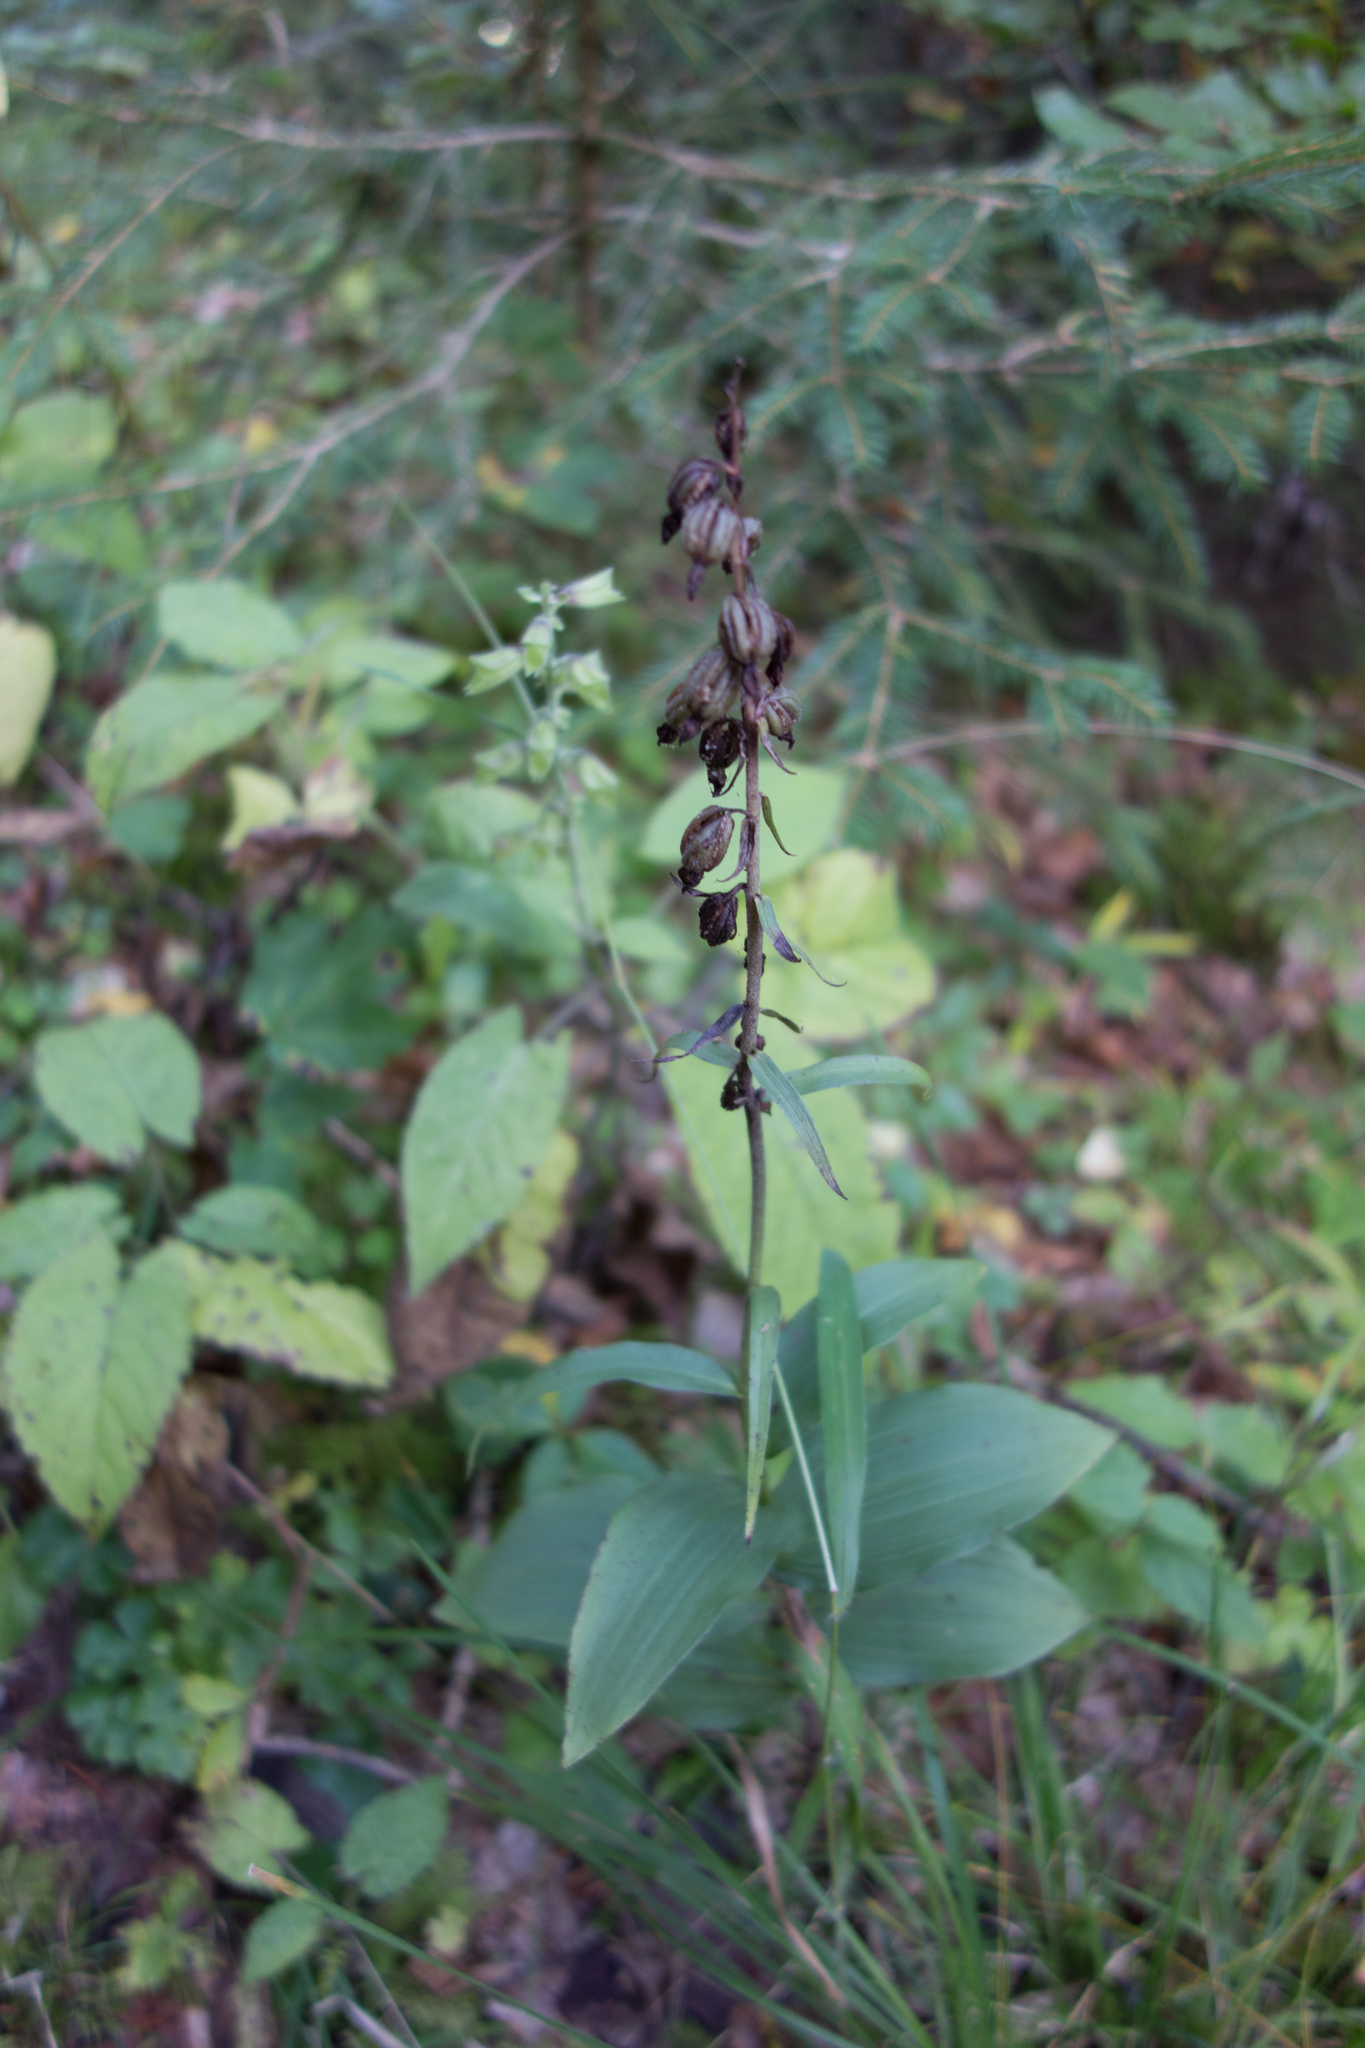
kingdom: Plantae
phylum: Tracheophyta
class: Liliopsida
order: Asparagales
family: Orchidaceae
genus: Epipactis
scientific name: Epipactis atrorubens
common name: Dark-red helleborine
